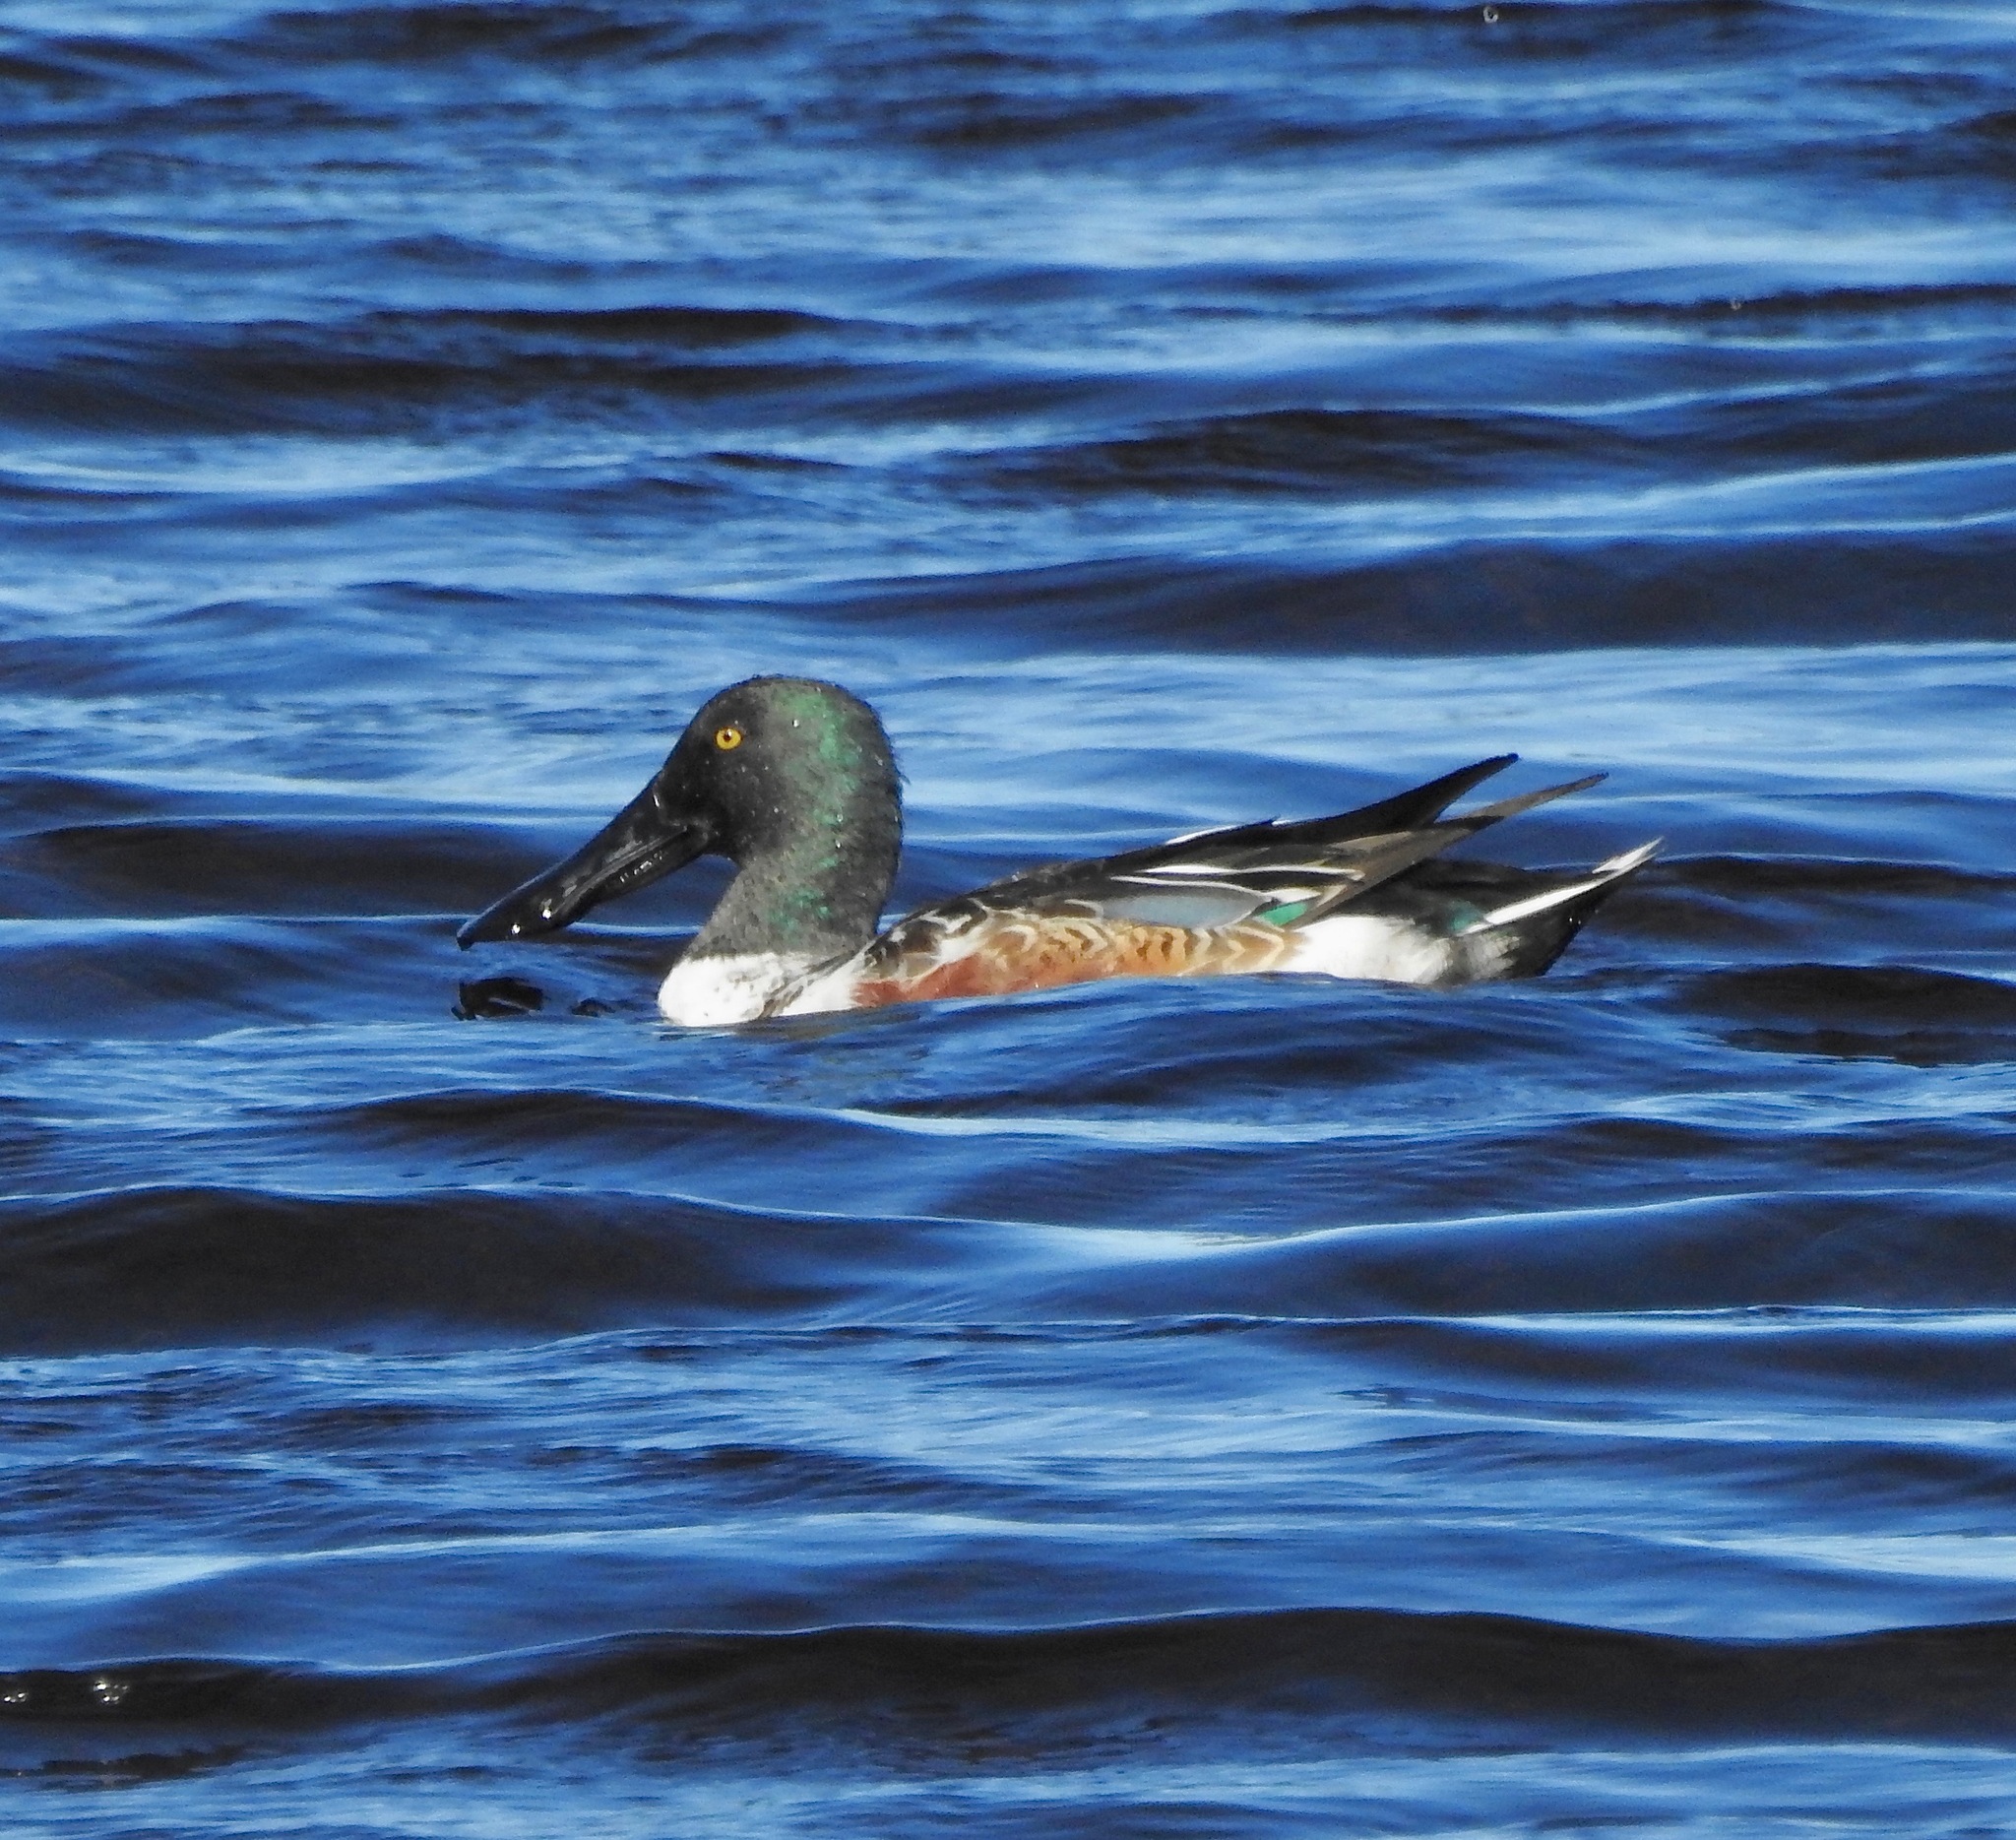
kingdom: Animalia
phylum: Chordata
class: Aves
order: Anseriformes
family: Anatidae
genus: Spatula
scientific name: Spatula clypeata
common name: Northern shoveler
